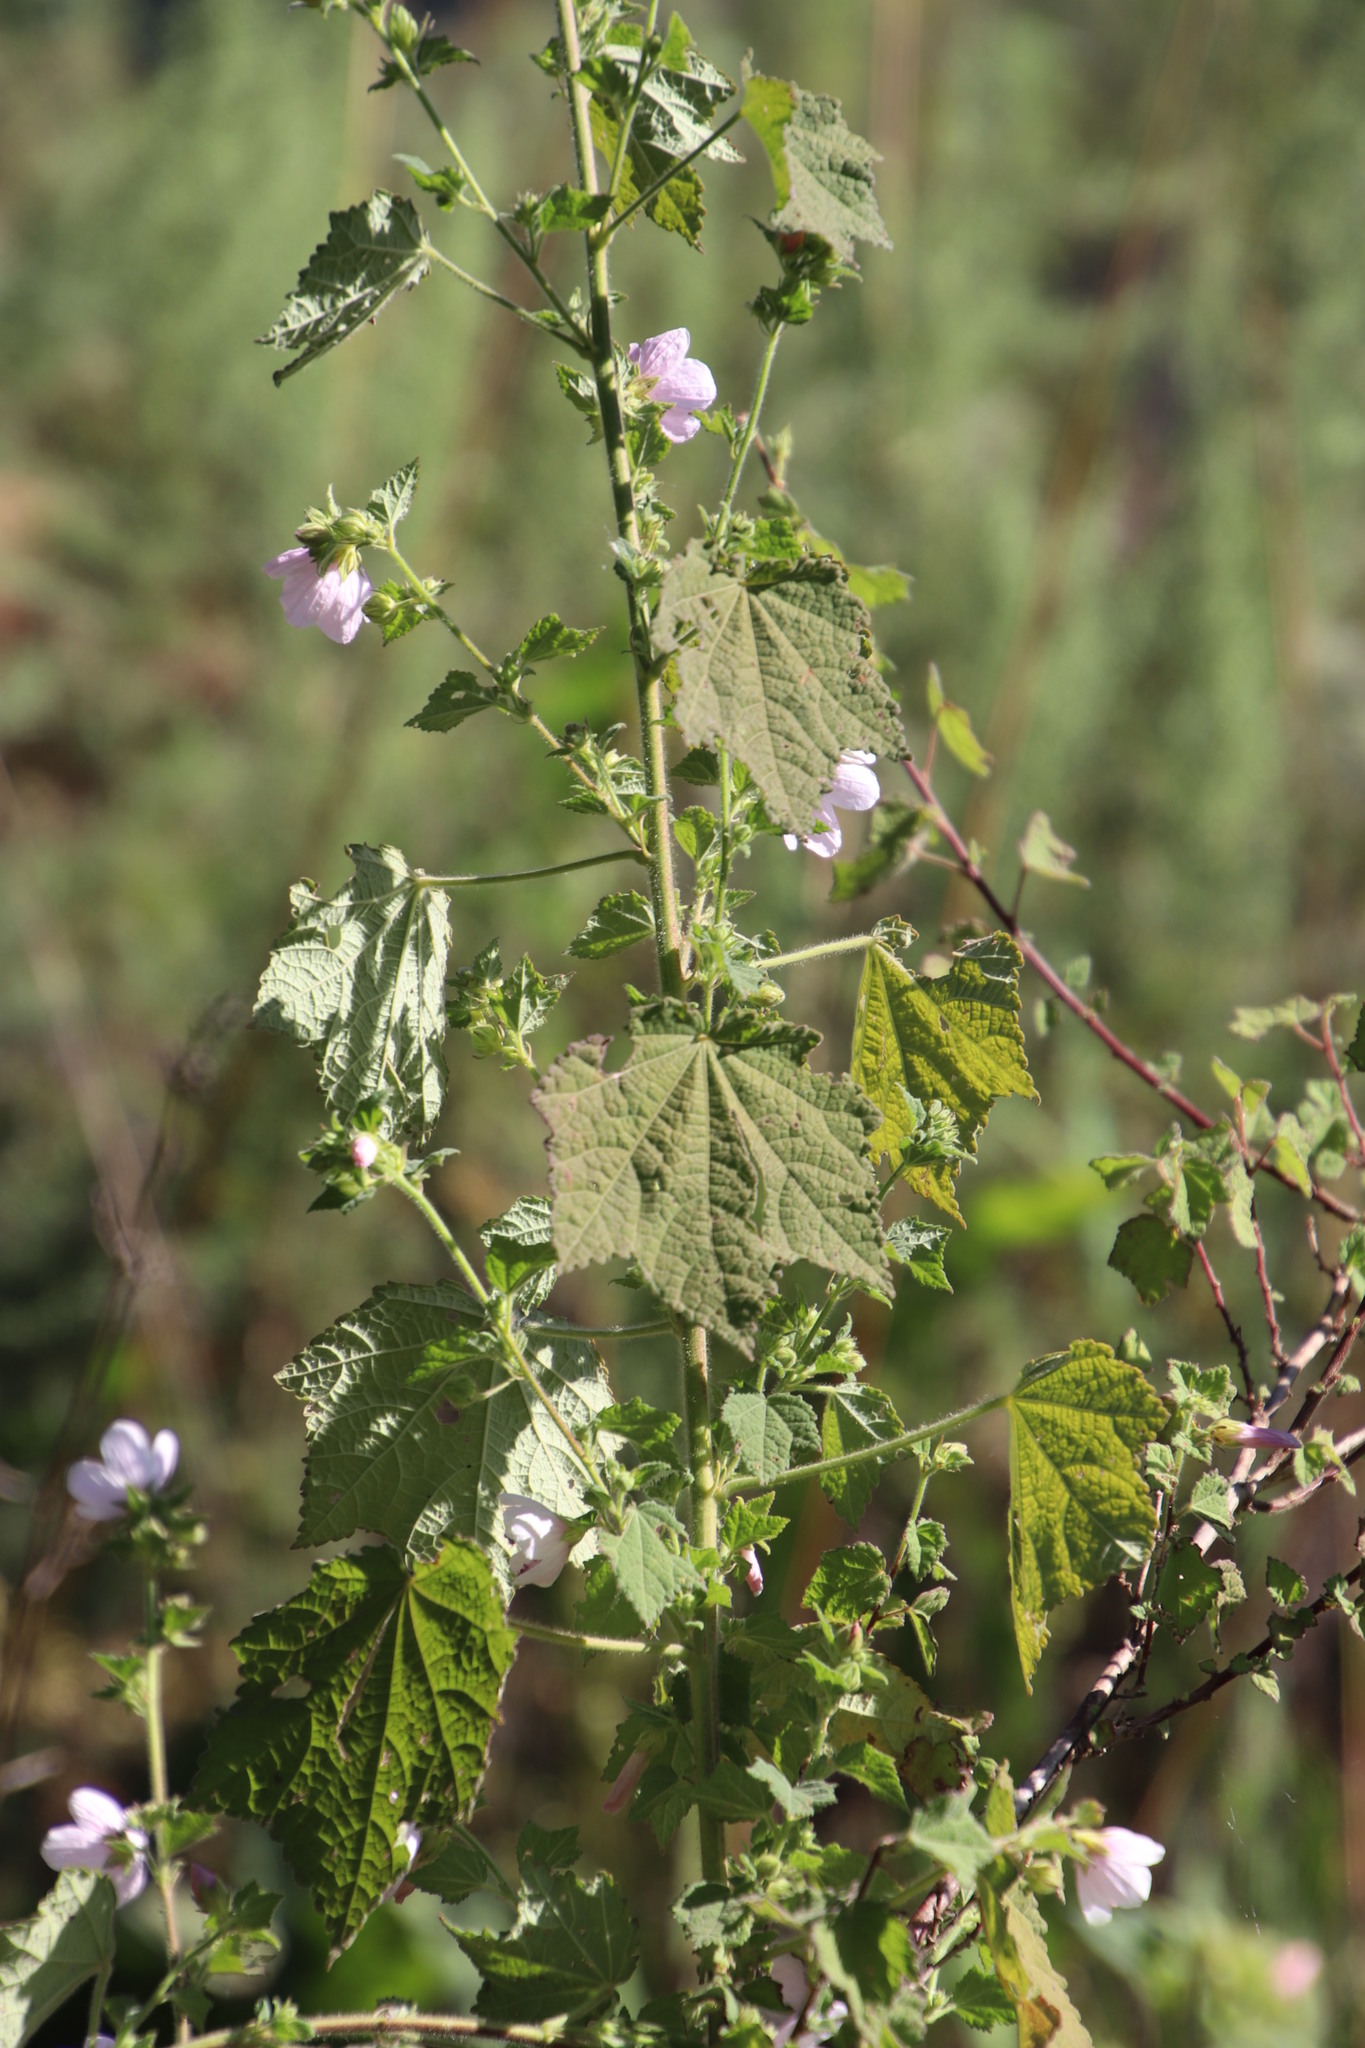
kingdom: Plantae
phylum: Tracheophyta
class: Magnoliopsida
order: Malvales
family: Malvaceae
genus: Pavonia
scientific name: Pavonia columella
